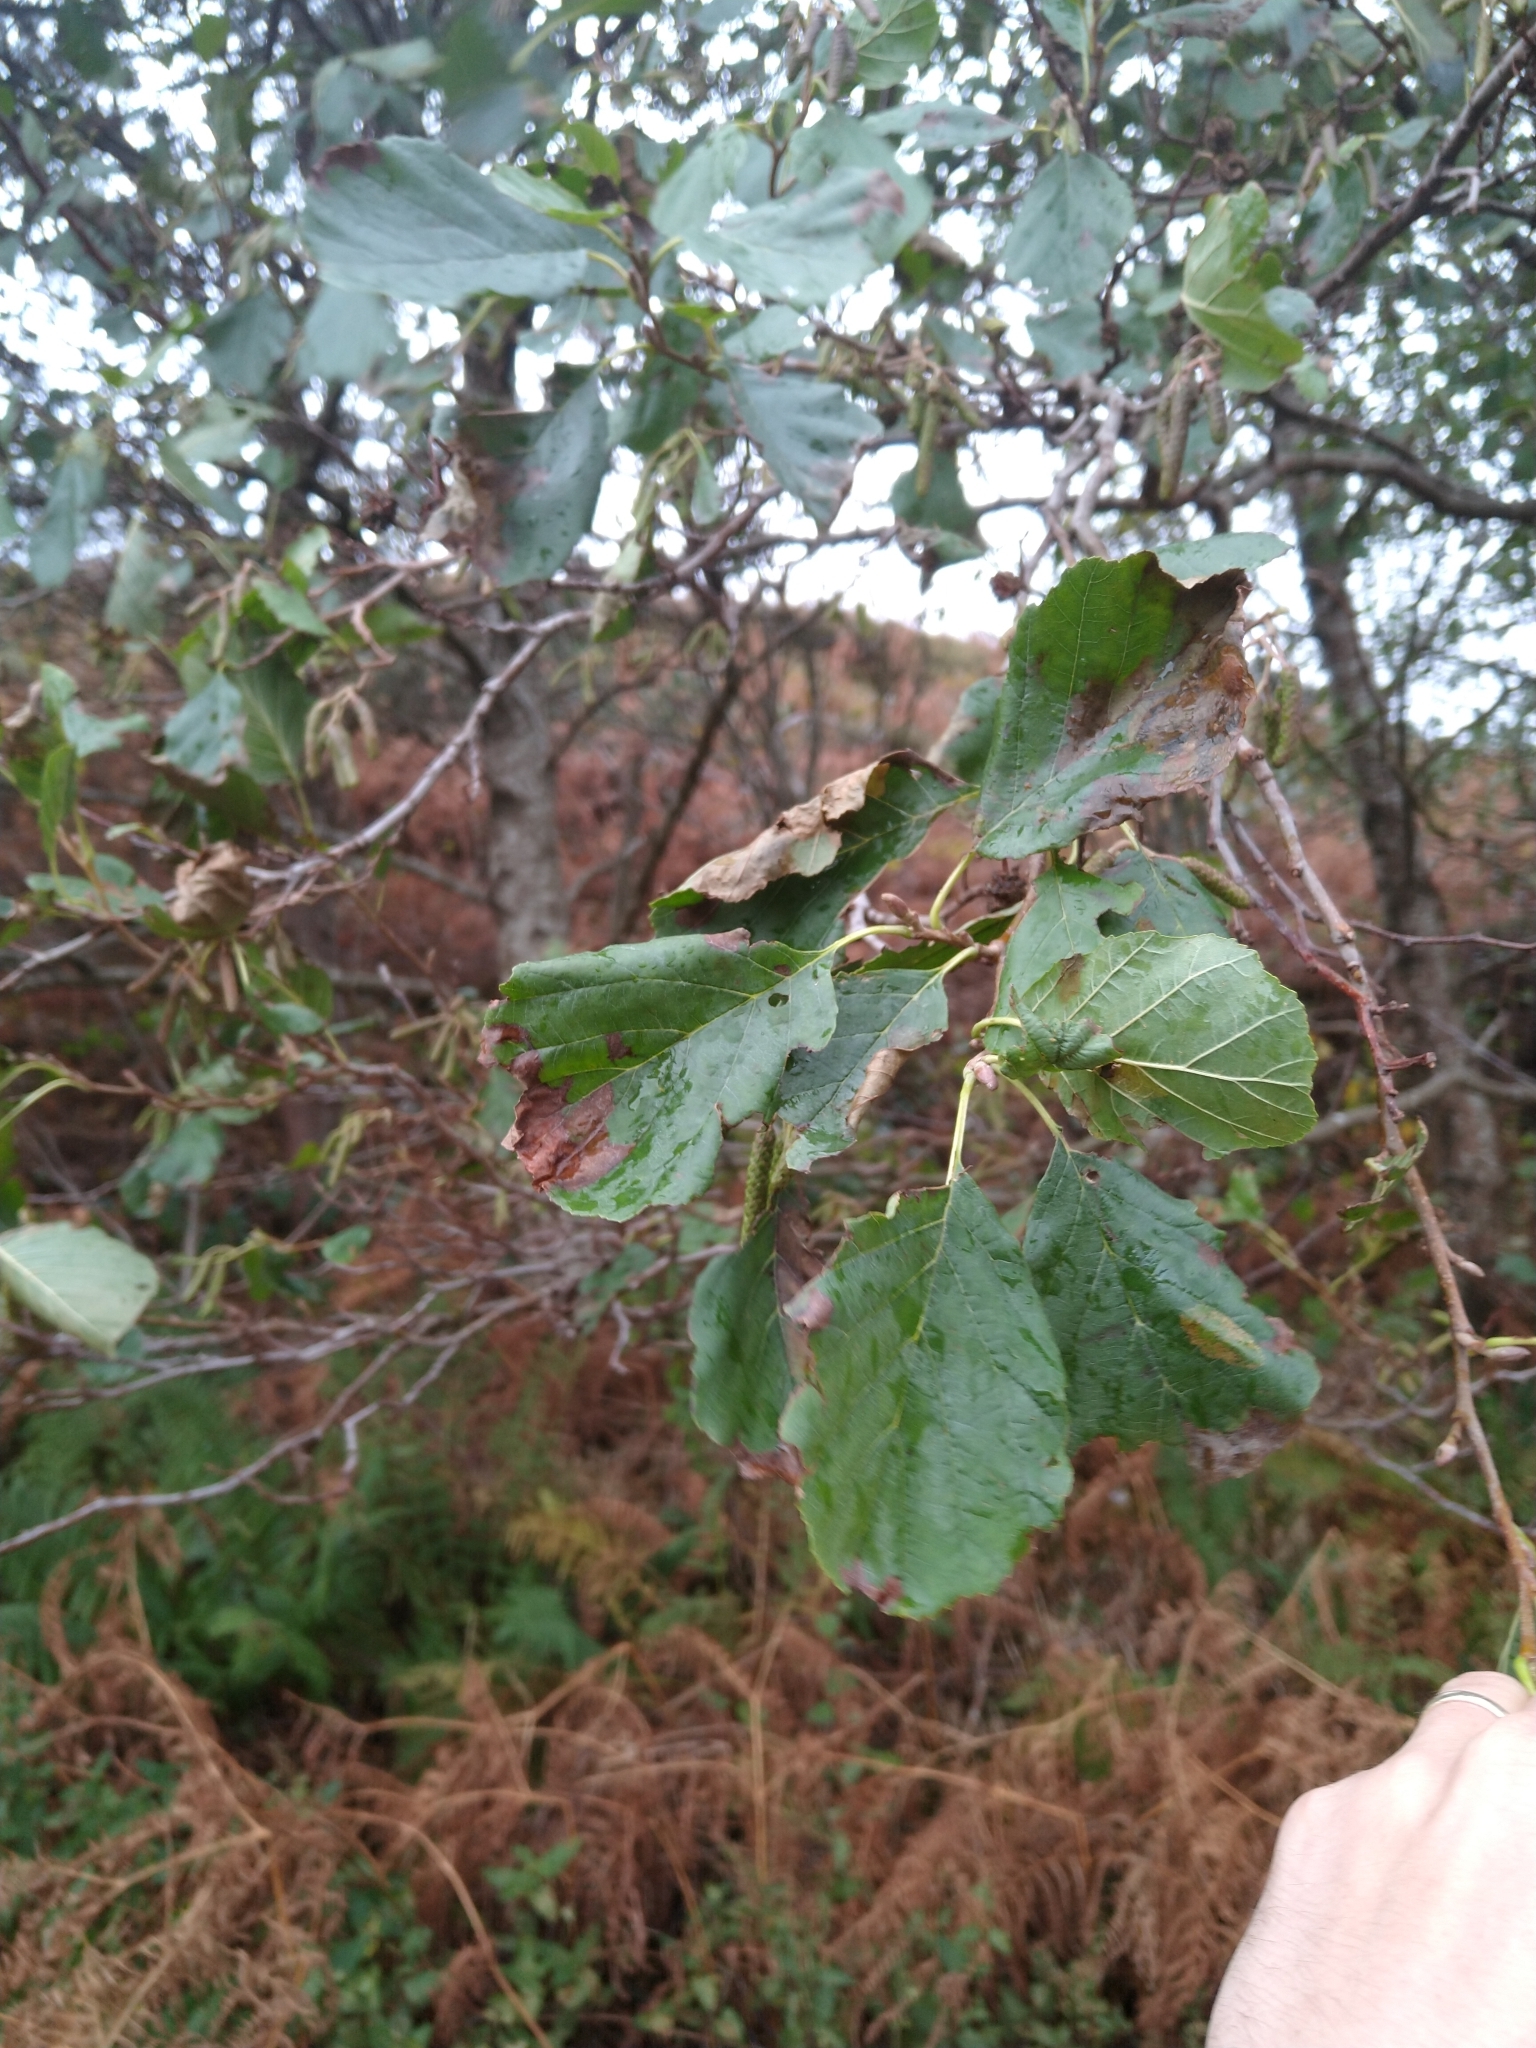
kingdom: Plantae
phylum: Tracheophyta
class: Magnoliopsida
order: Fagales
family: Betulaceae
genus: Alnus
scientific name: Alnus glutinosa
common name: Black alder
